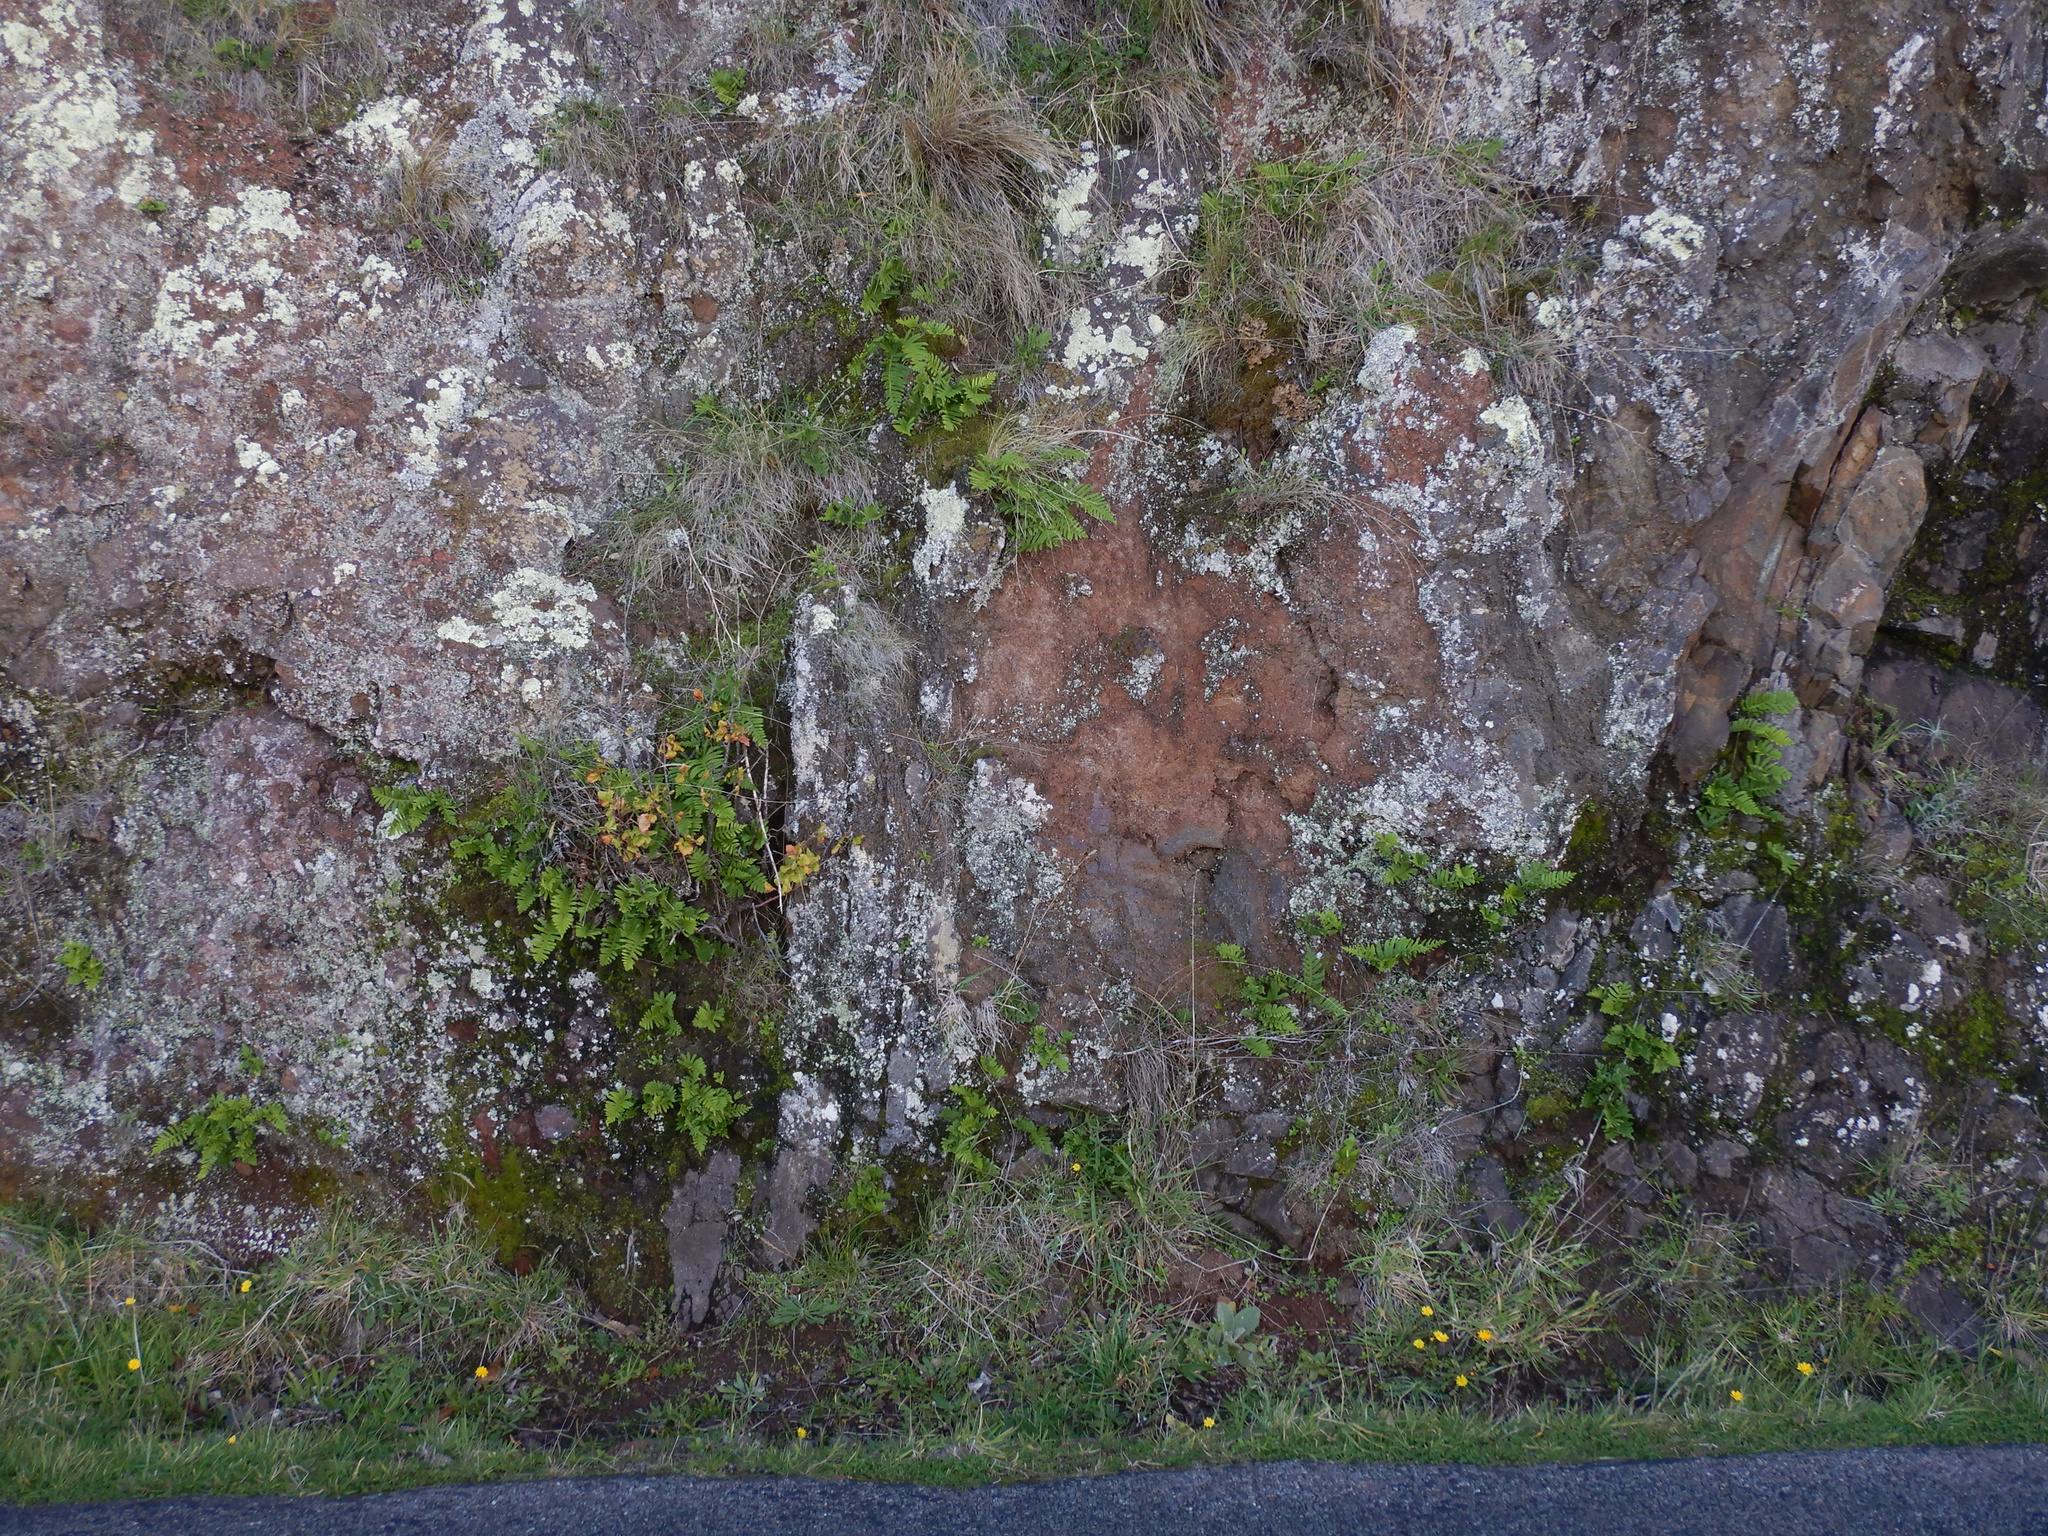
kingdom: Plantae
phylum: Tracheophyta
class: Polypodiopsida
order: Polypodiales
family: Polypodiaceae
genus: Polypodium
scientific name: Polypodium vulgare
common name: Common polypody
